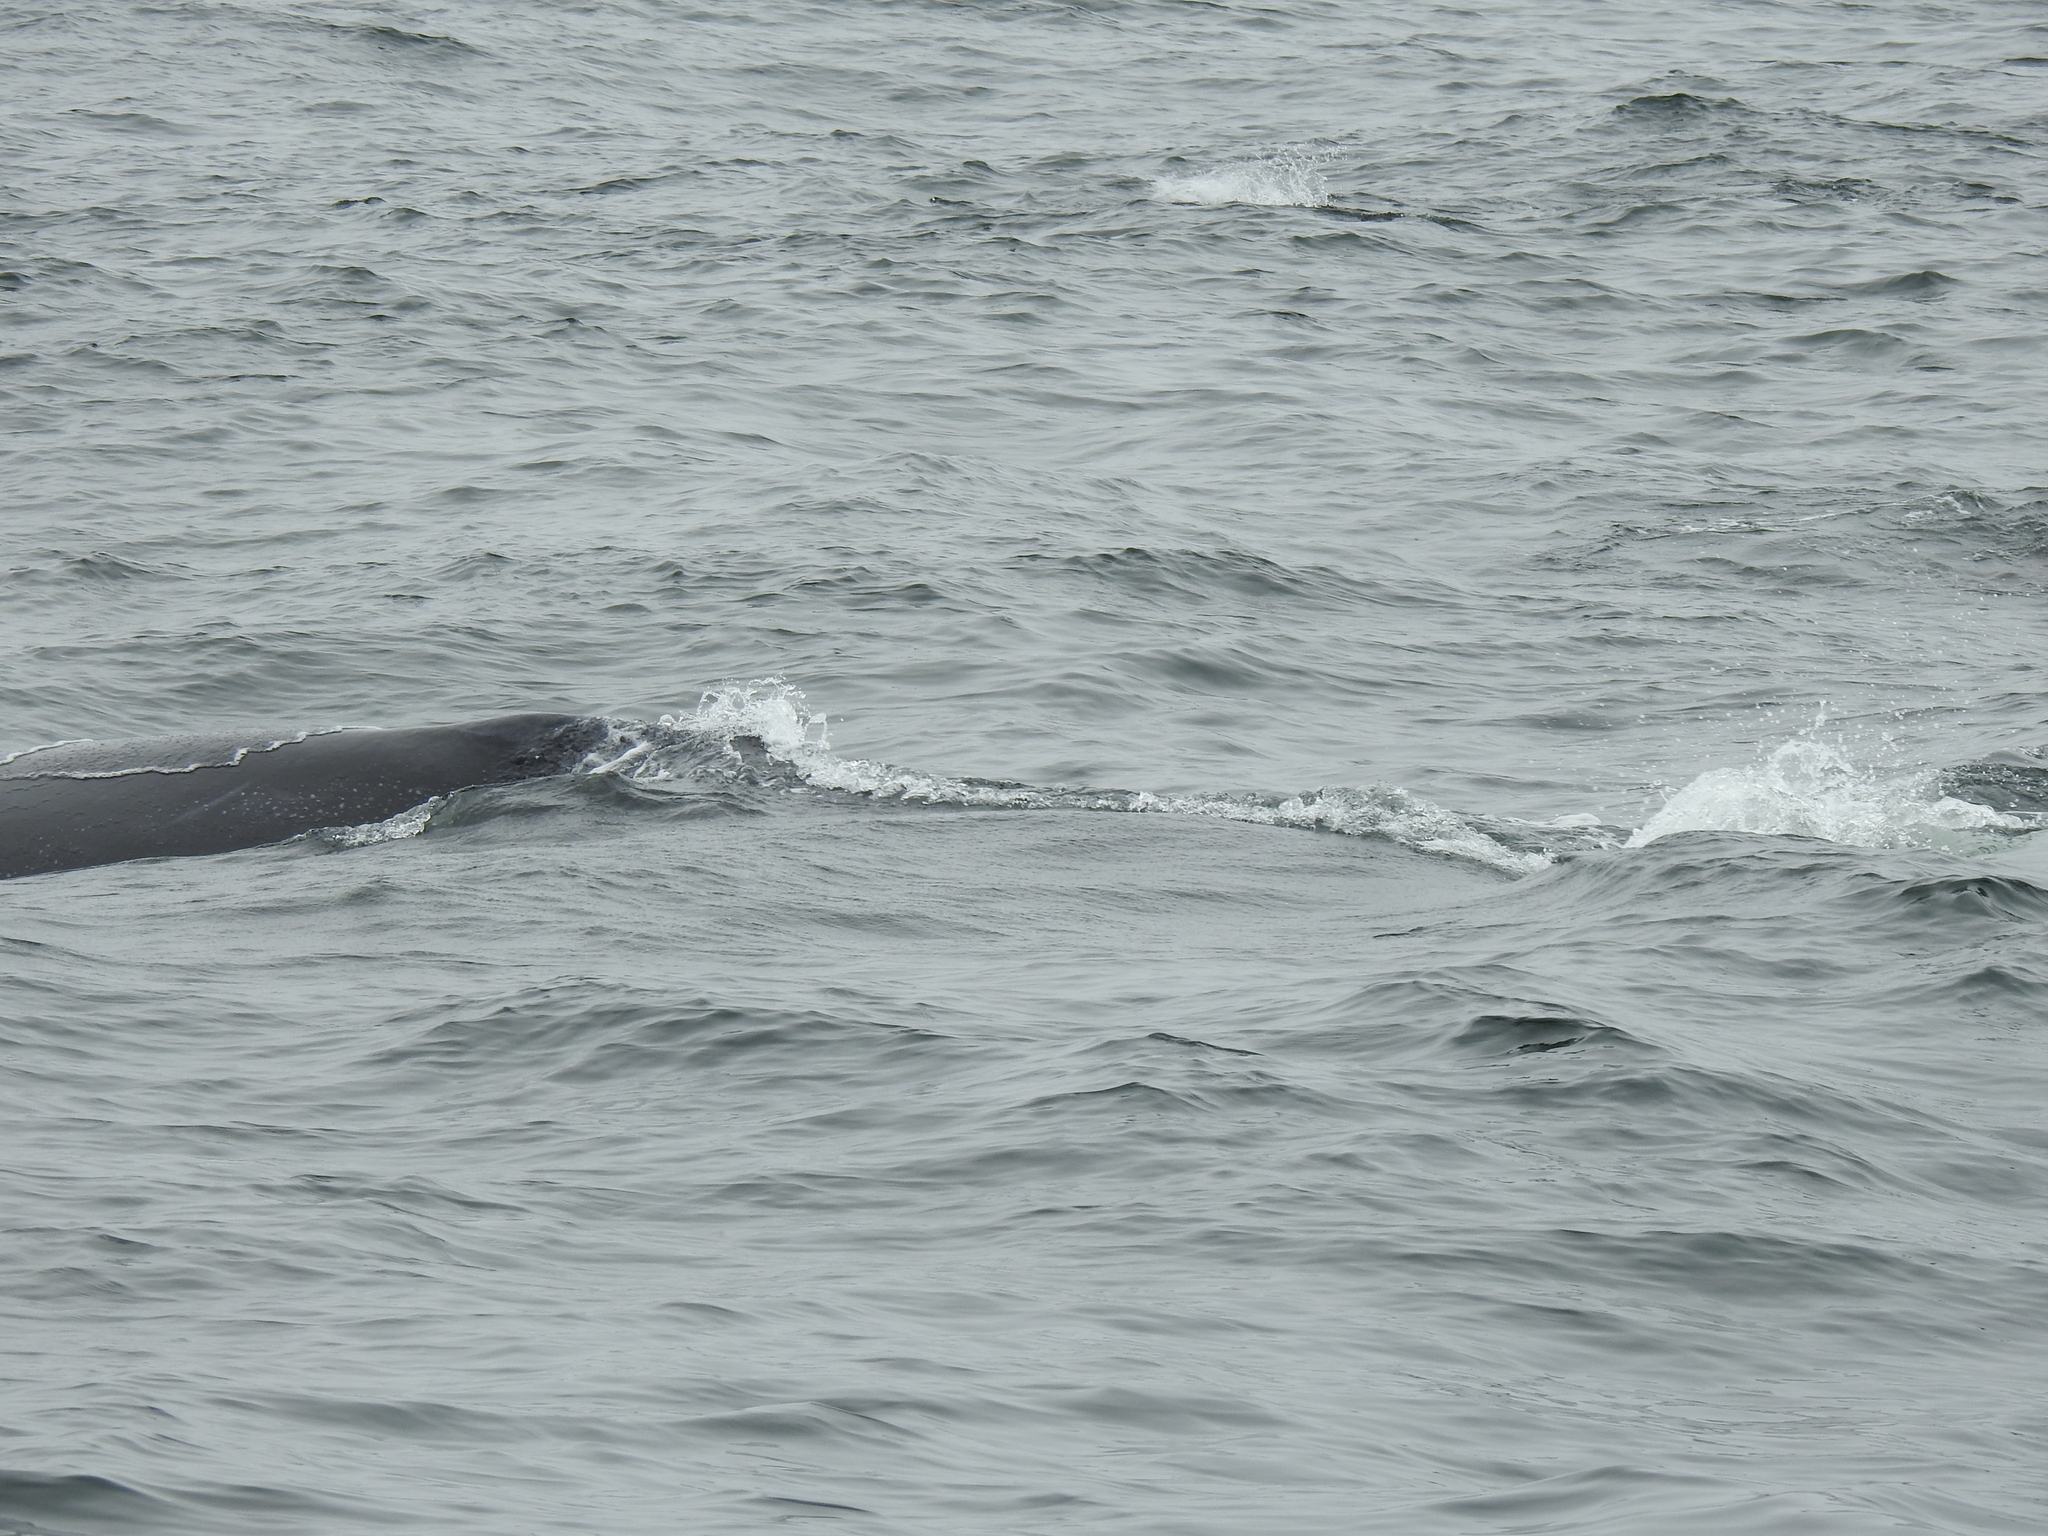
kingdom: Animalia
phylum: Chordata
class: Mammalia
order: Cetacea
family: Balaenopteridae
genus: Megaptera
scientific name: Megaptera novaeangliae
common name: Humpback whale
